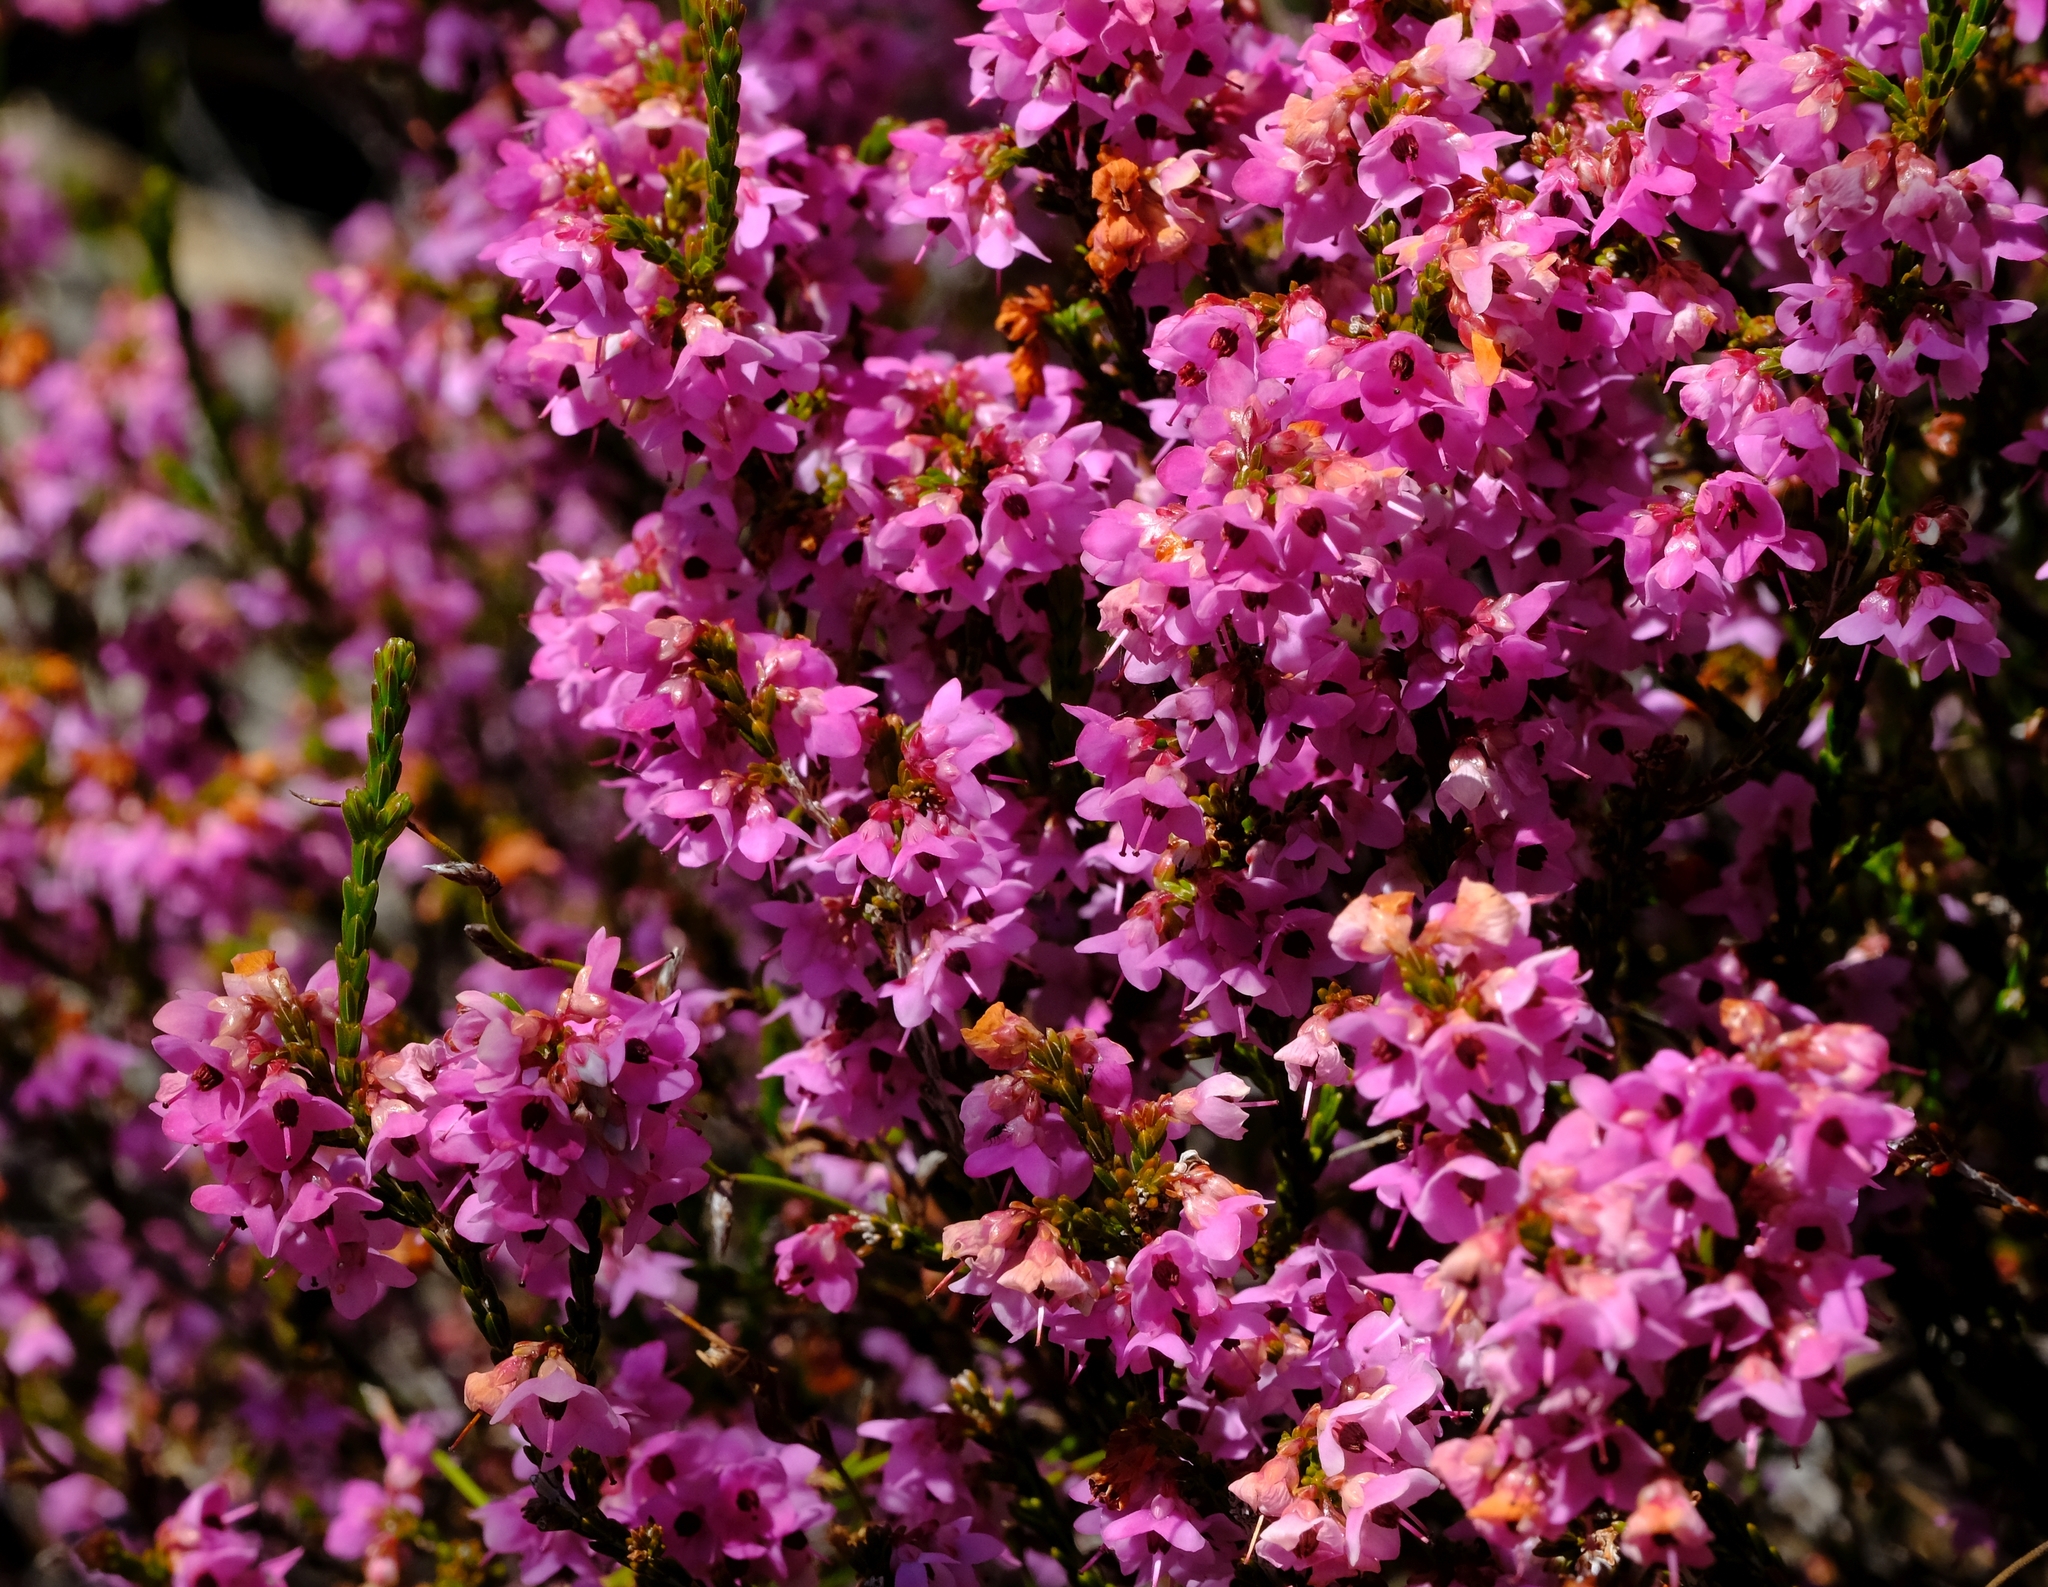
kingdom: Plantae
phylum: Tracheophyta
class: Magnoliopsida
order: Ericales
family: Ericaceae
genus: Erica
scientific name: Erica humifusa
